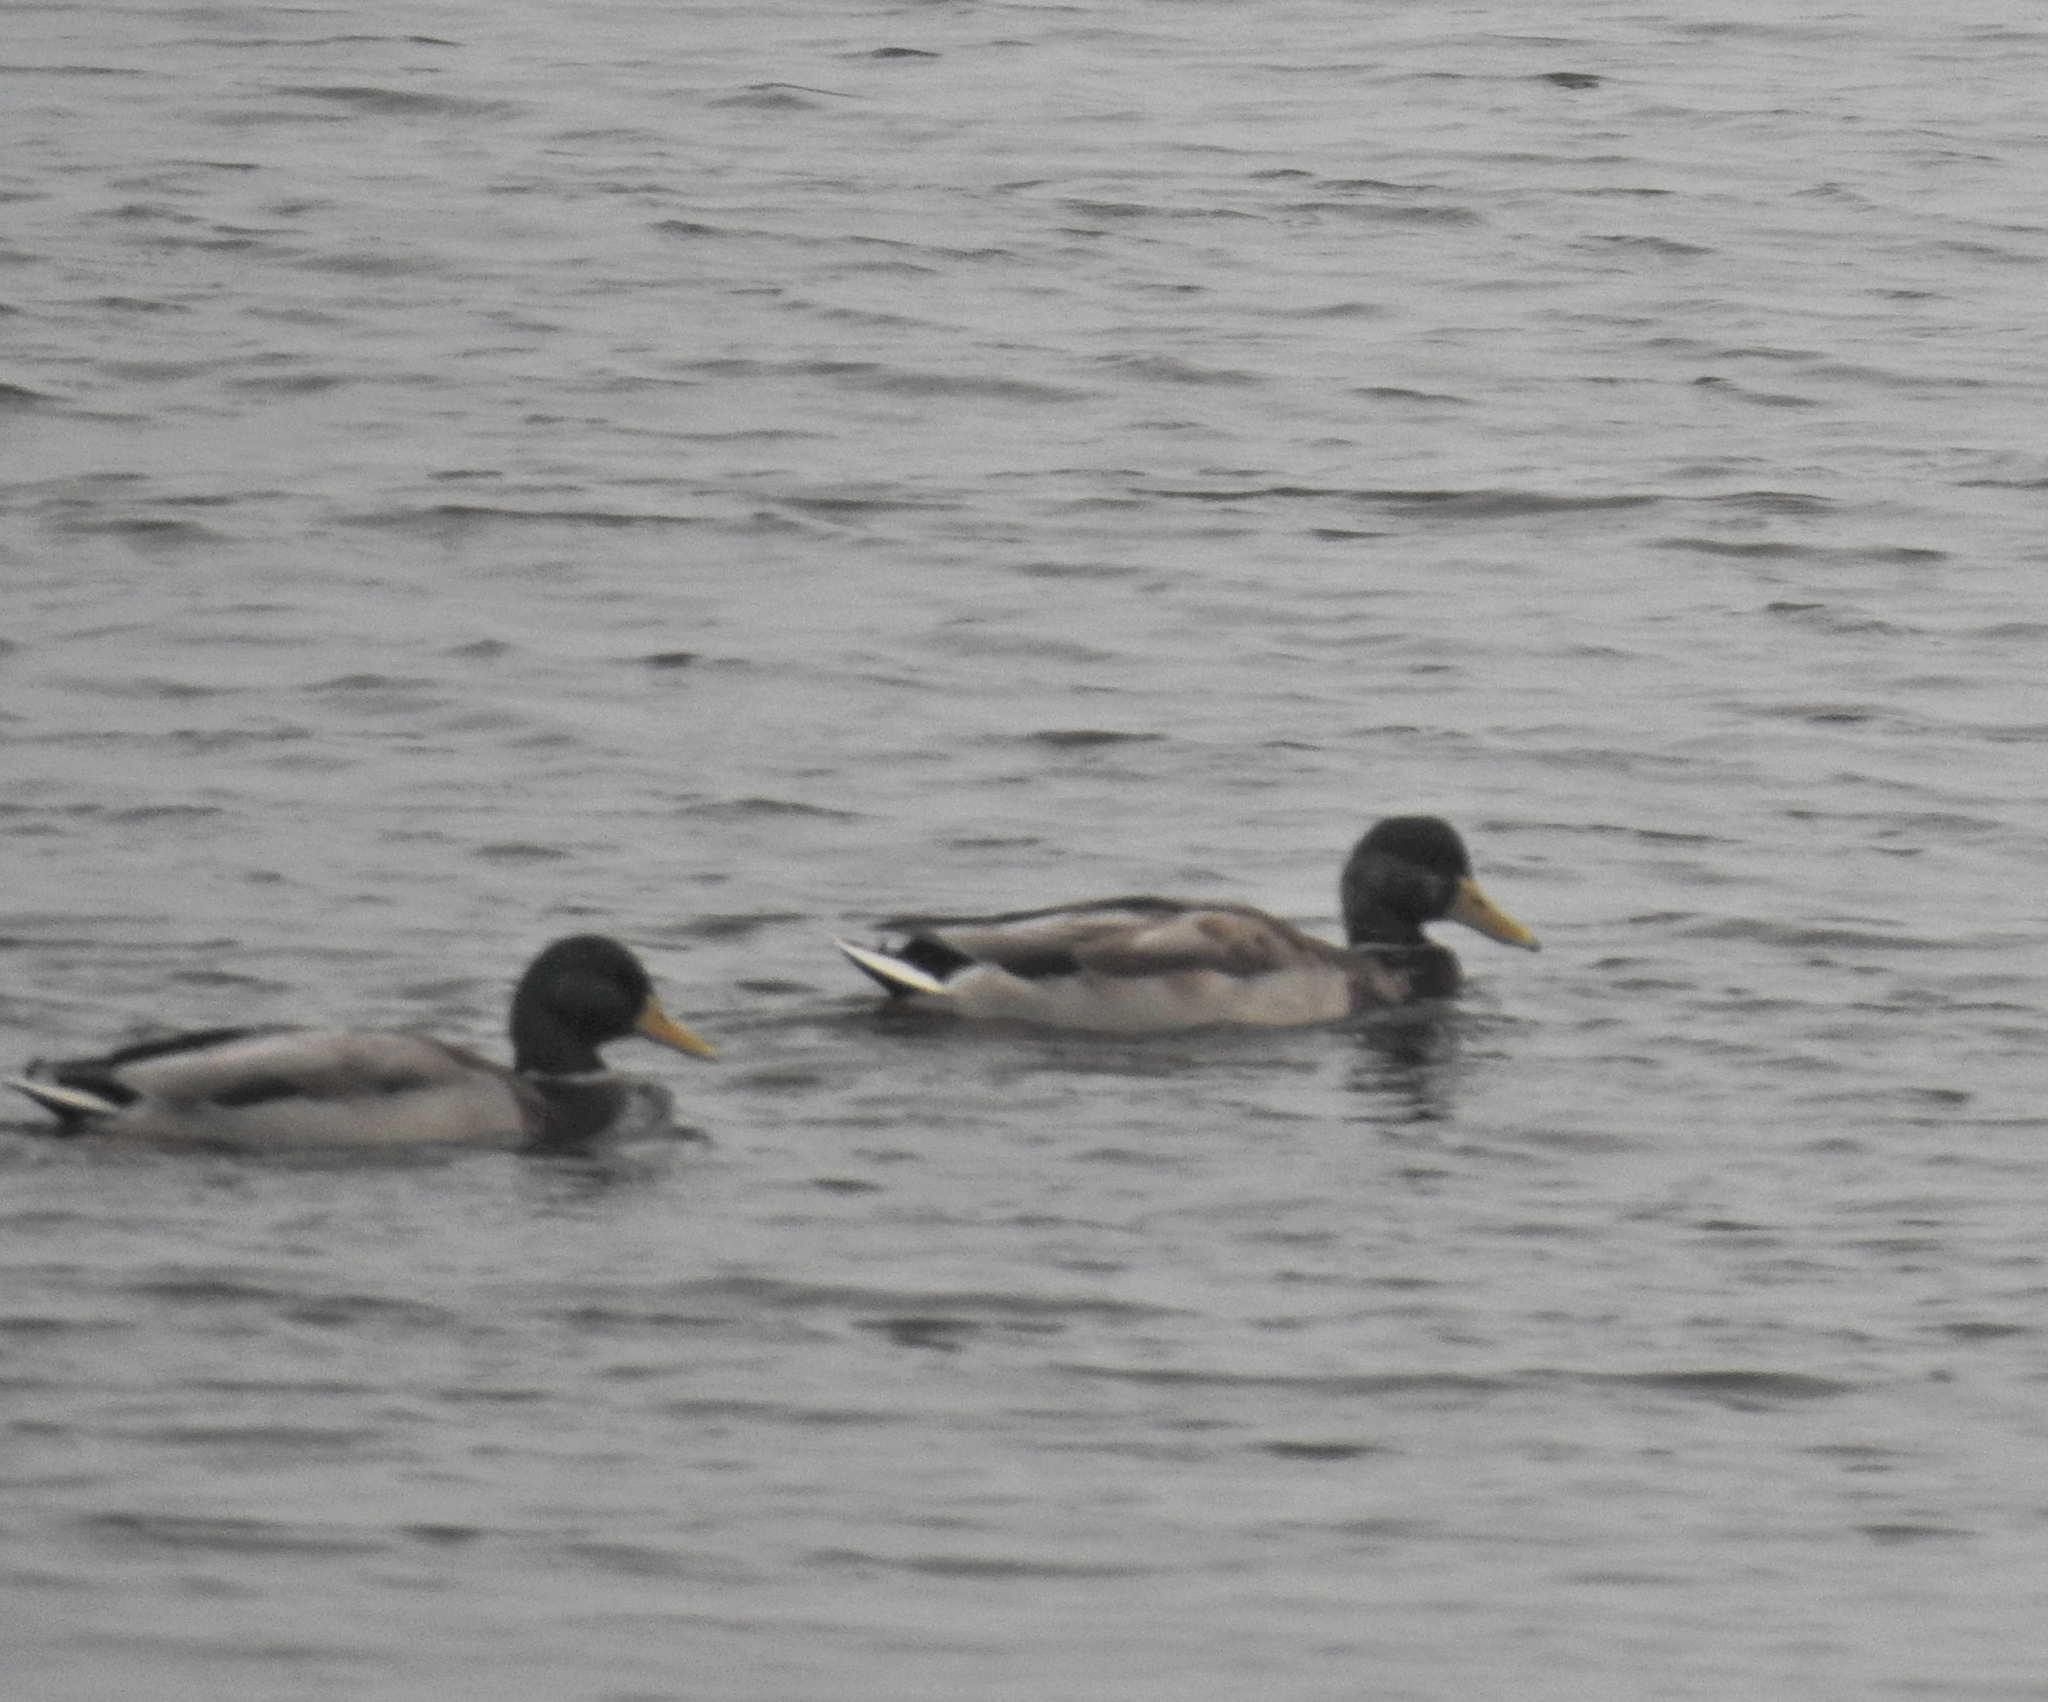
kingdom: Animalia
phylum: Chordata
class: Aves
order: Anseriformes
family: Anatidae
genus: Anas
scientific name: Anas platyrhynchos
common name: Mallard
